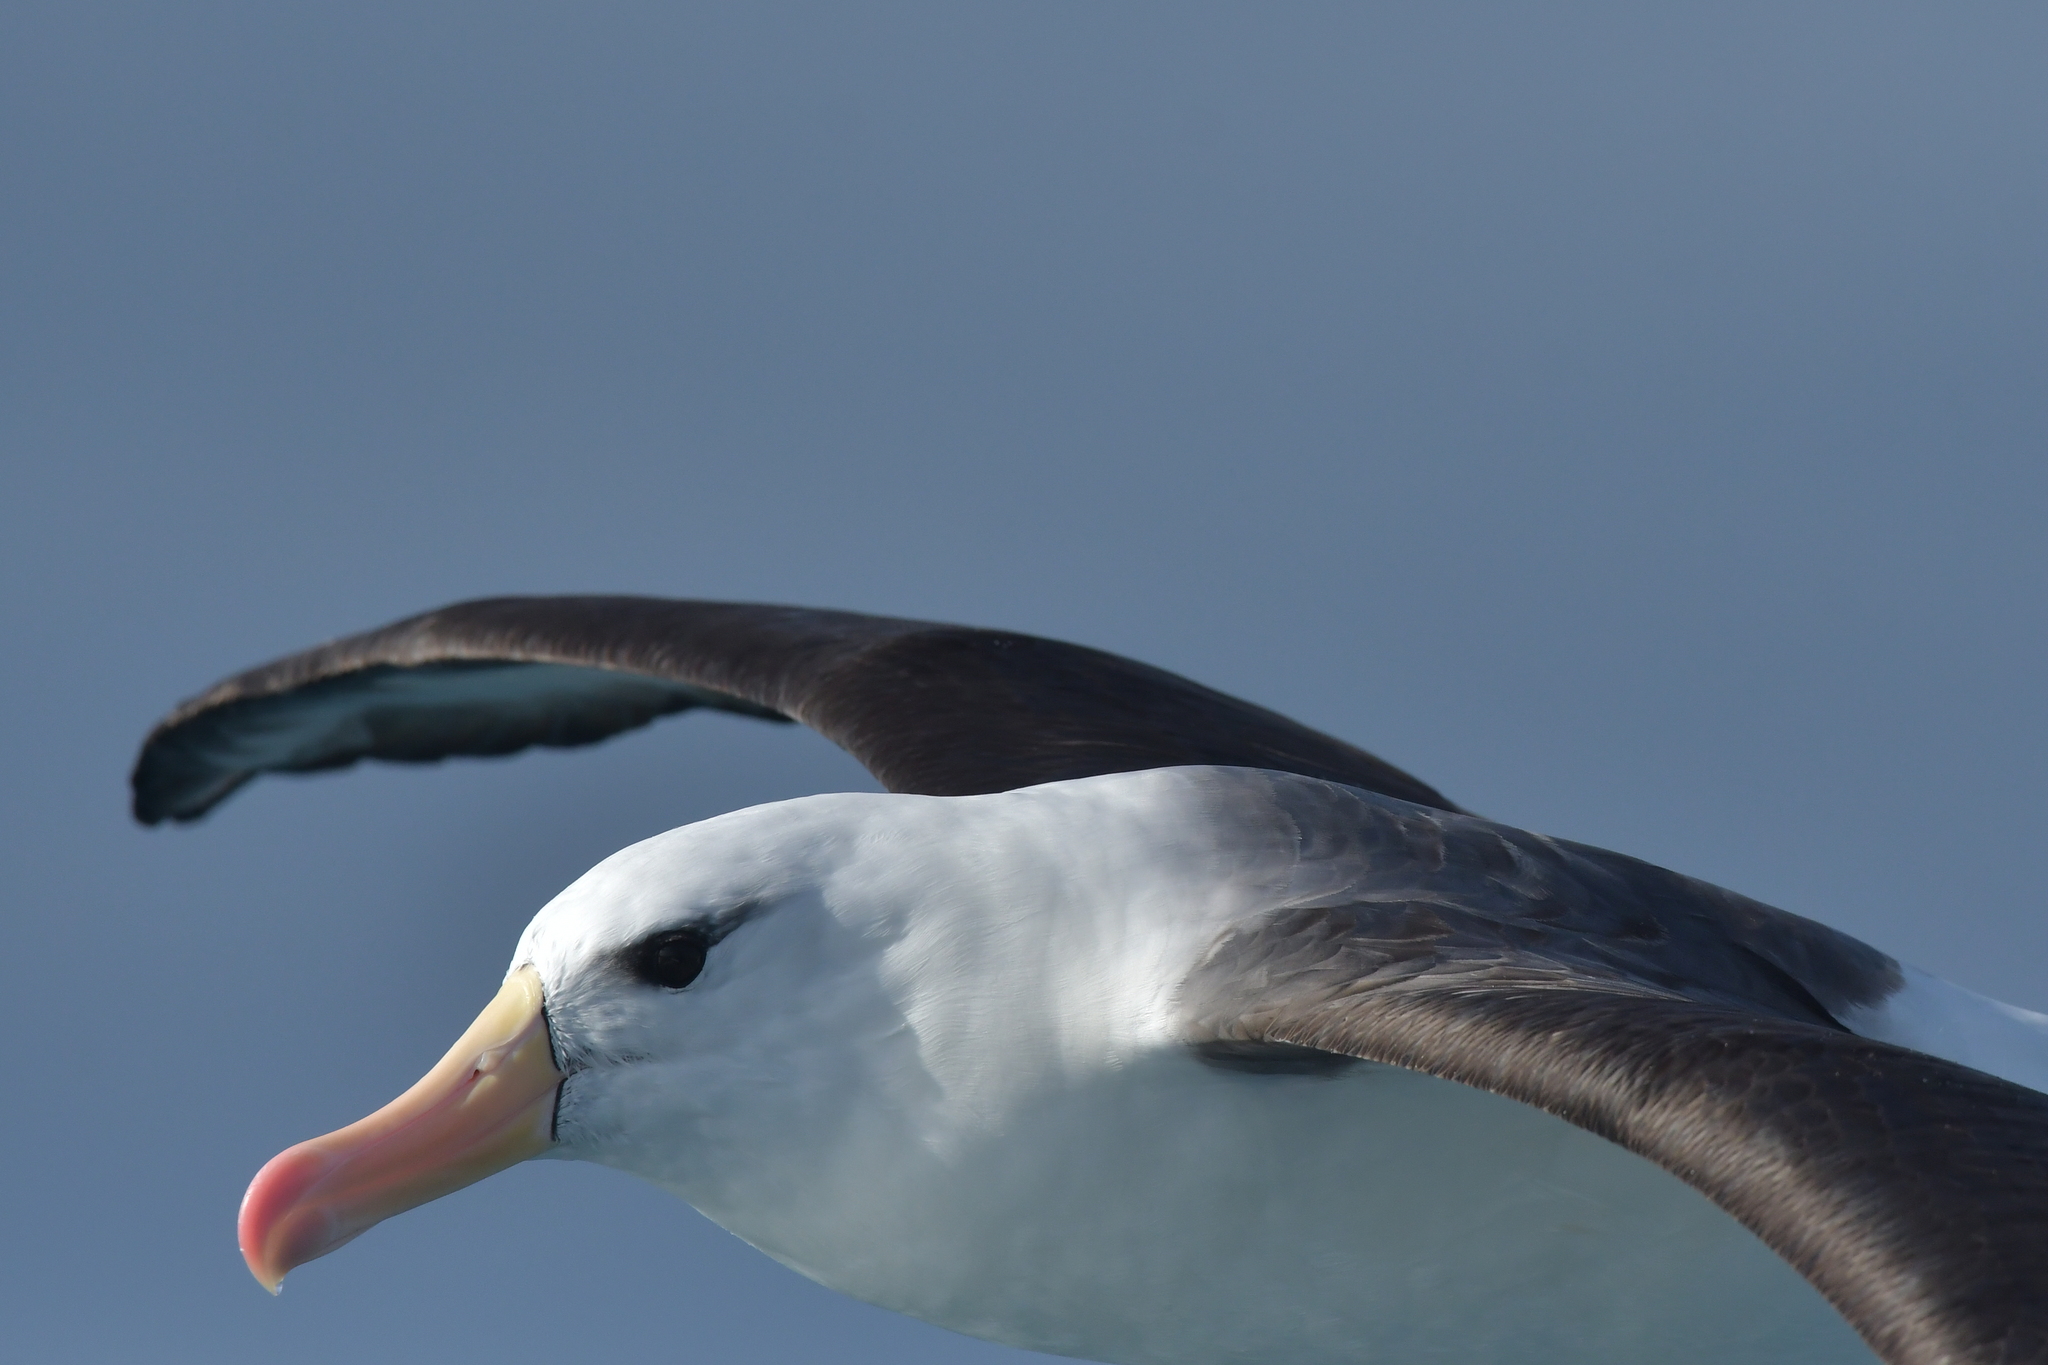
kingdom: Animalia
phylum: Chordata
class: Aves
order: Procellariiformes
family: Diomedeidae
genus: Thalassarche
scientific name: Thalassarche melanophris
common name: Black-browed albatross
